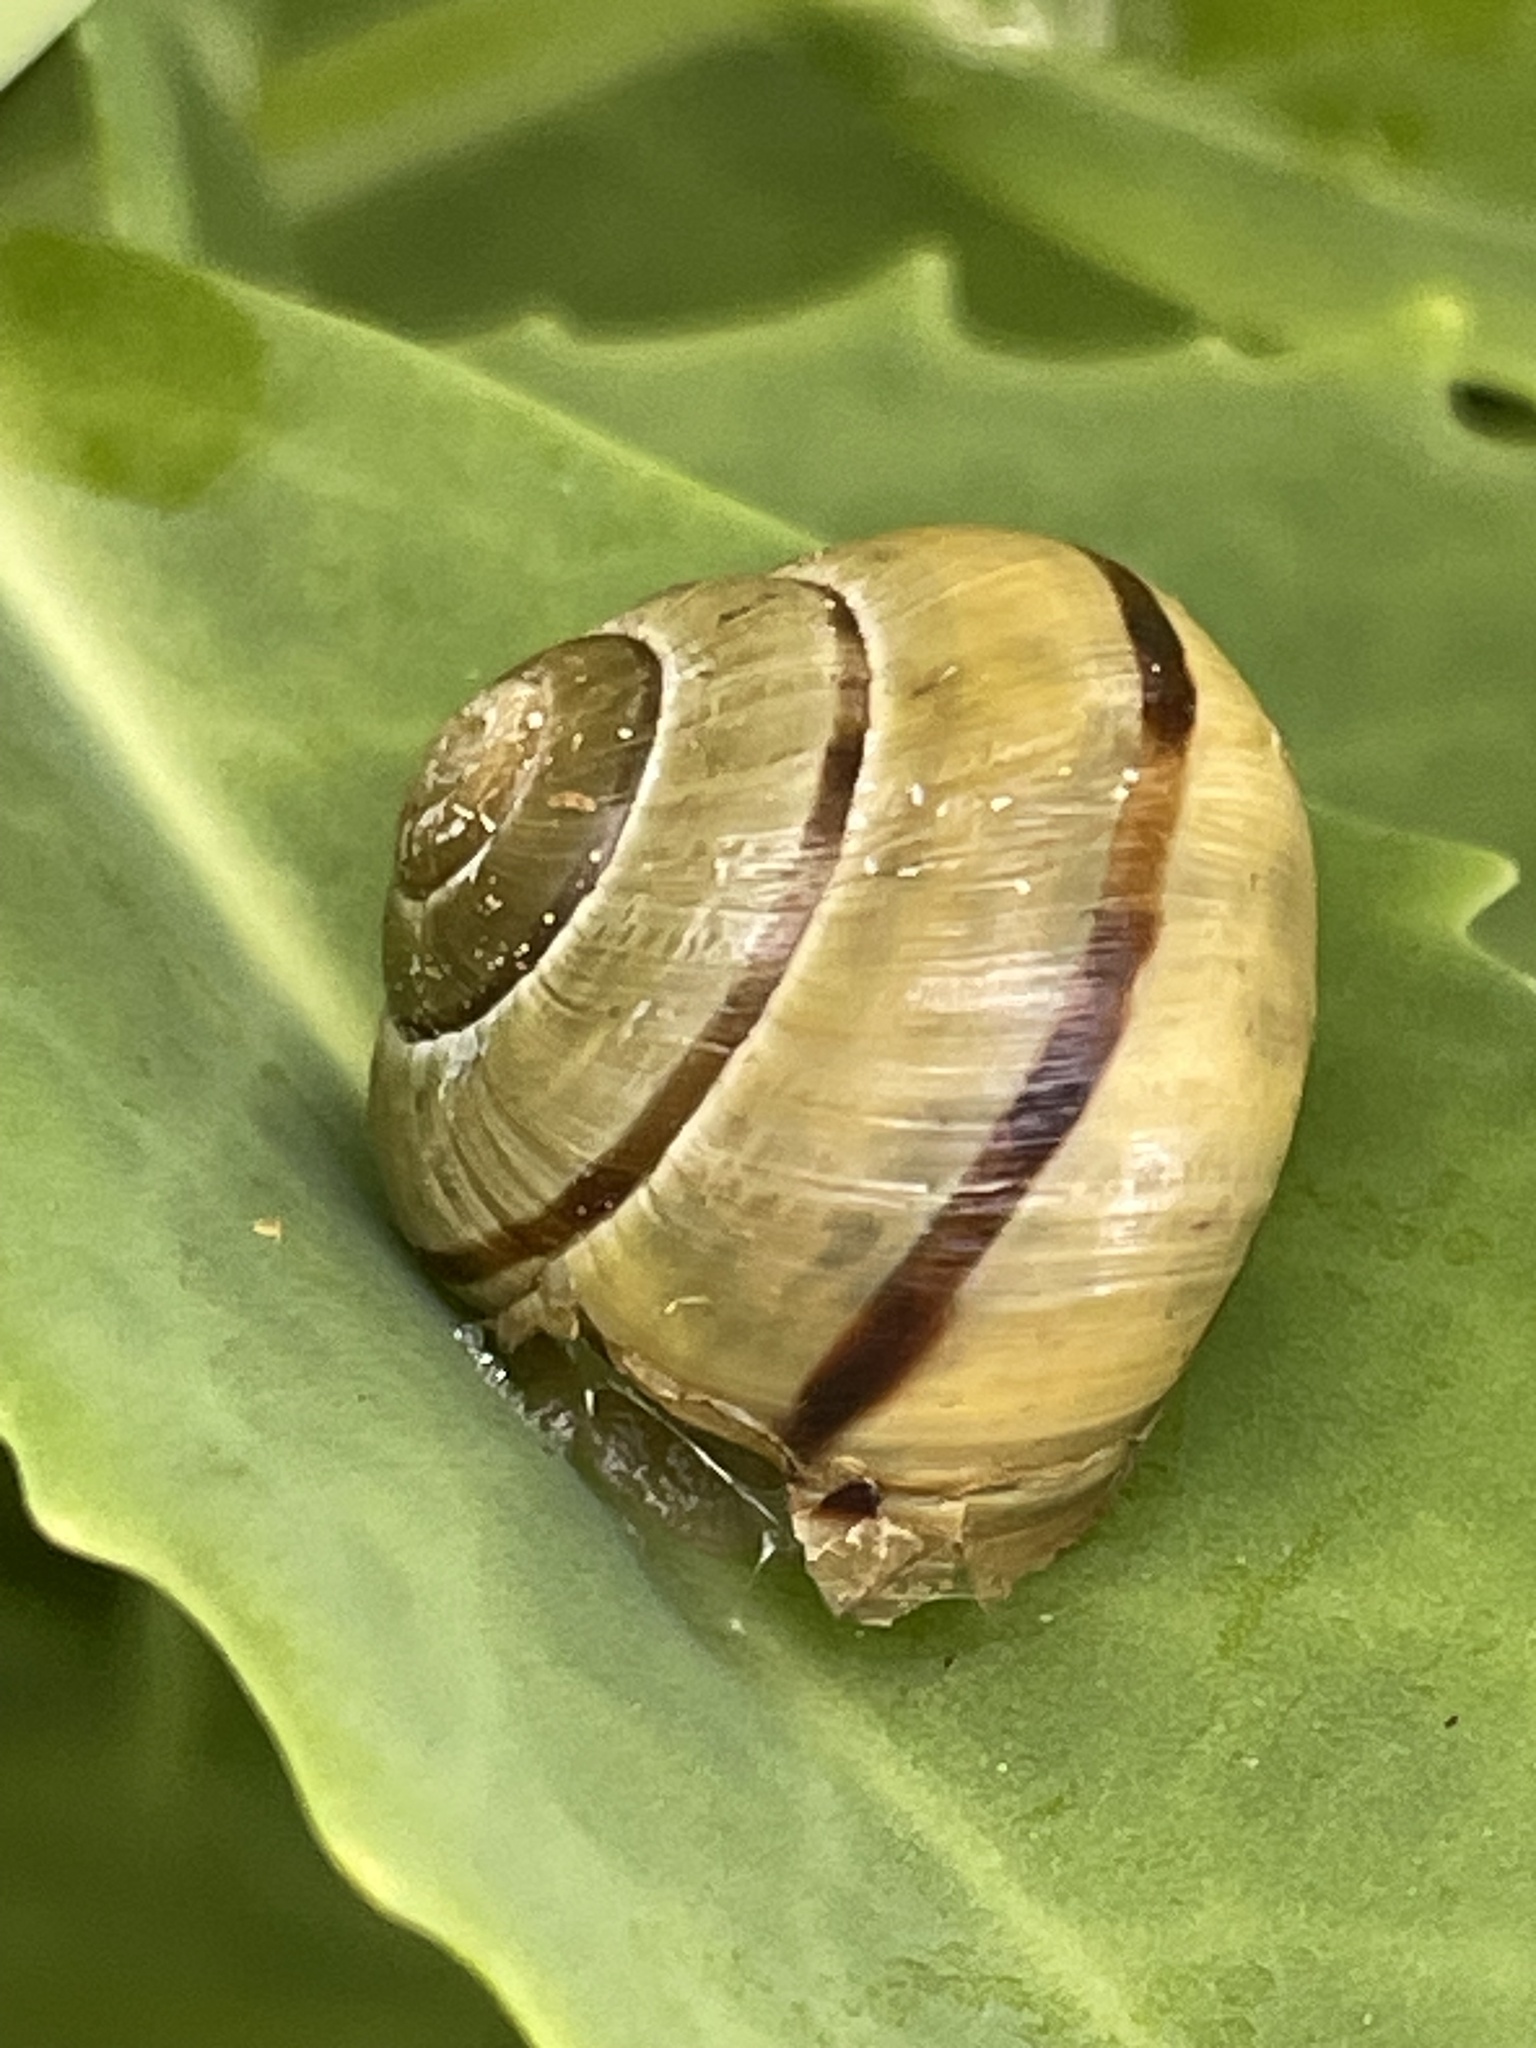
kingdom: Animalia
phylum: Mollusca
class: Gastropoda
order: Stylommatophora
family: Helicidae
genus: Cepaea
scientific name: Cepaea nemoralis
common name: Grovesnail
